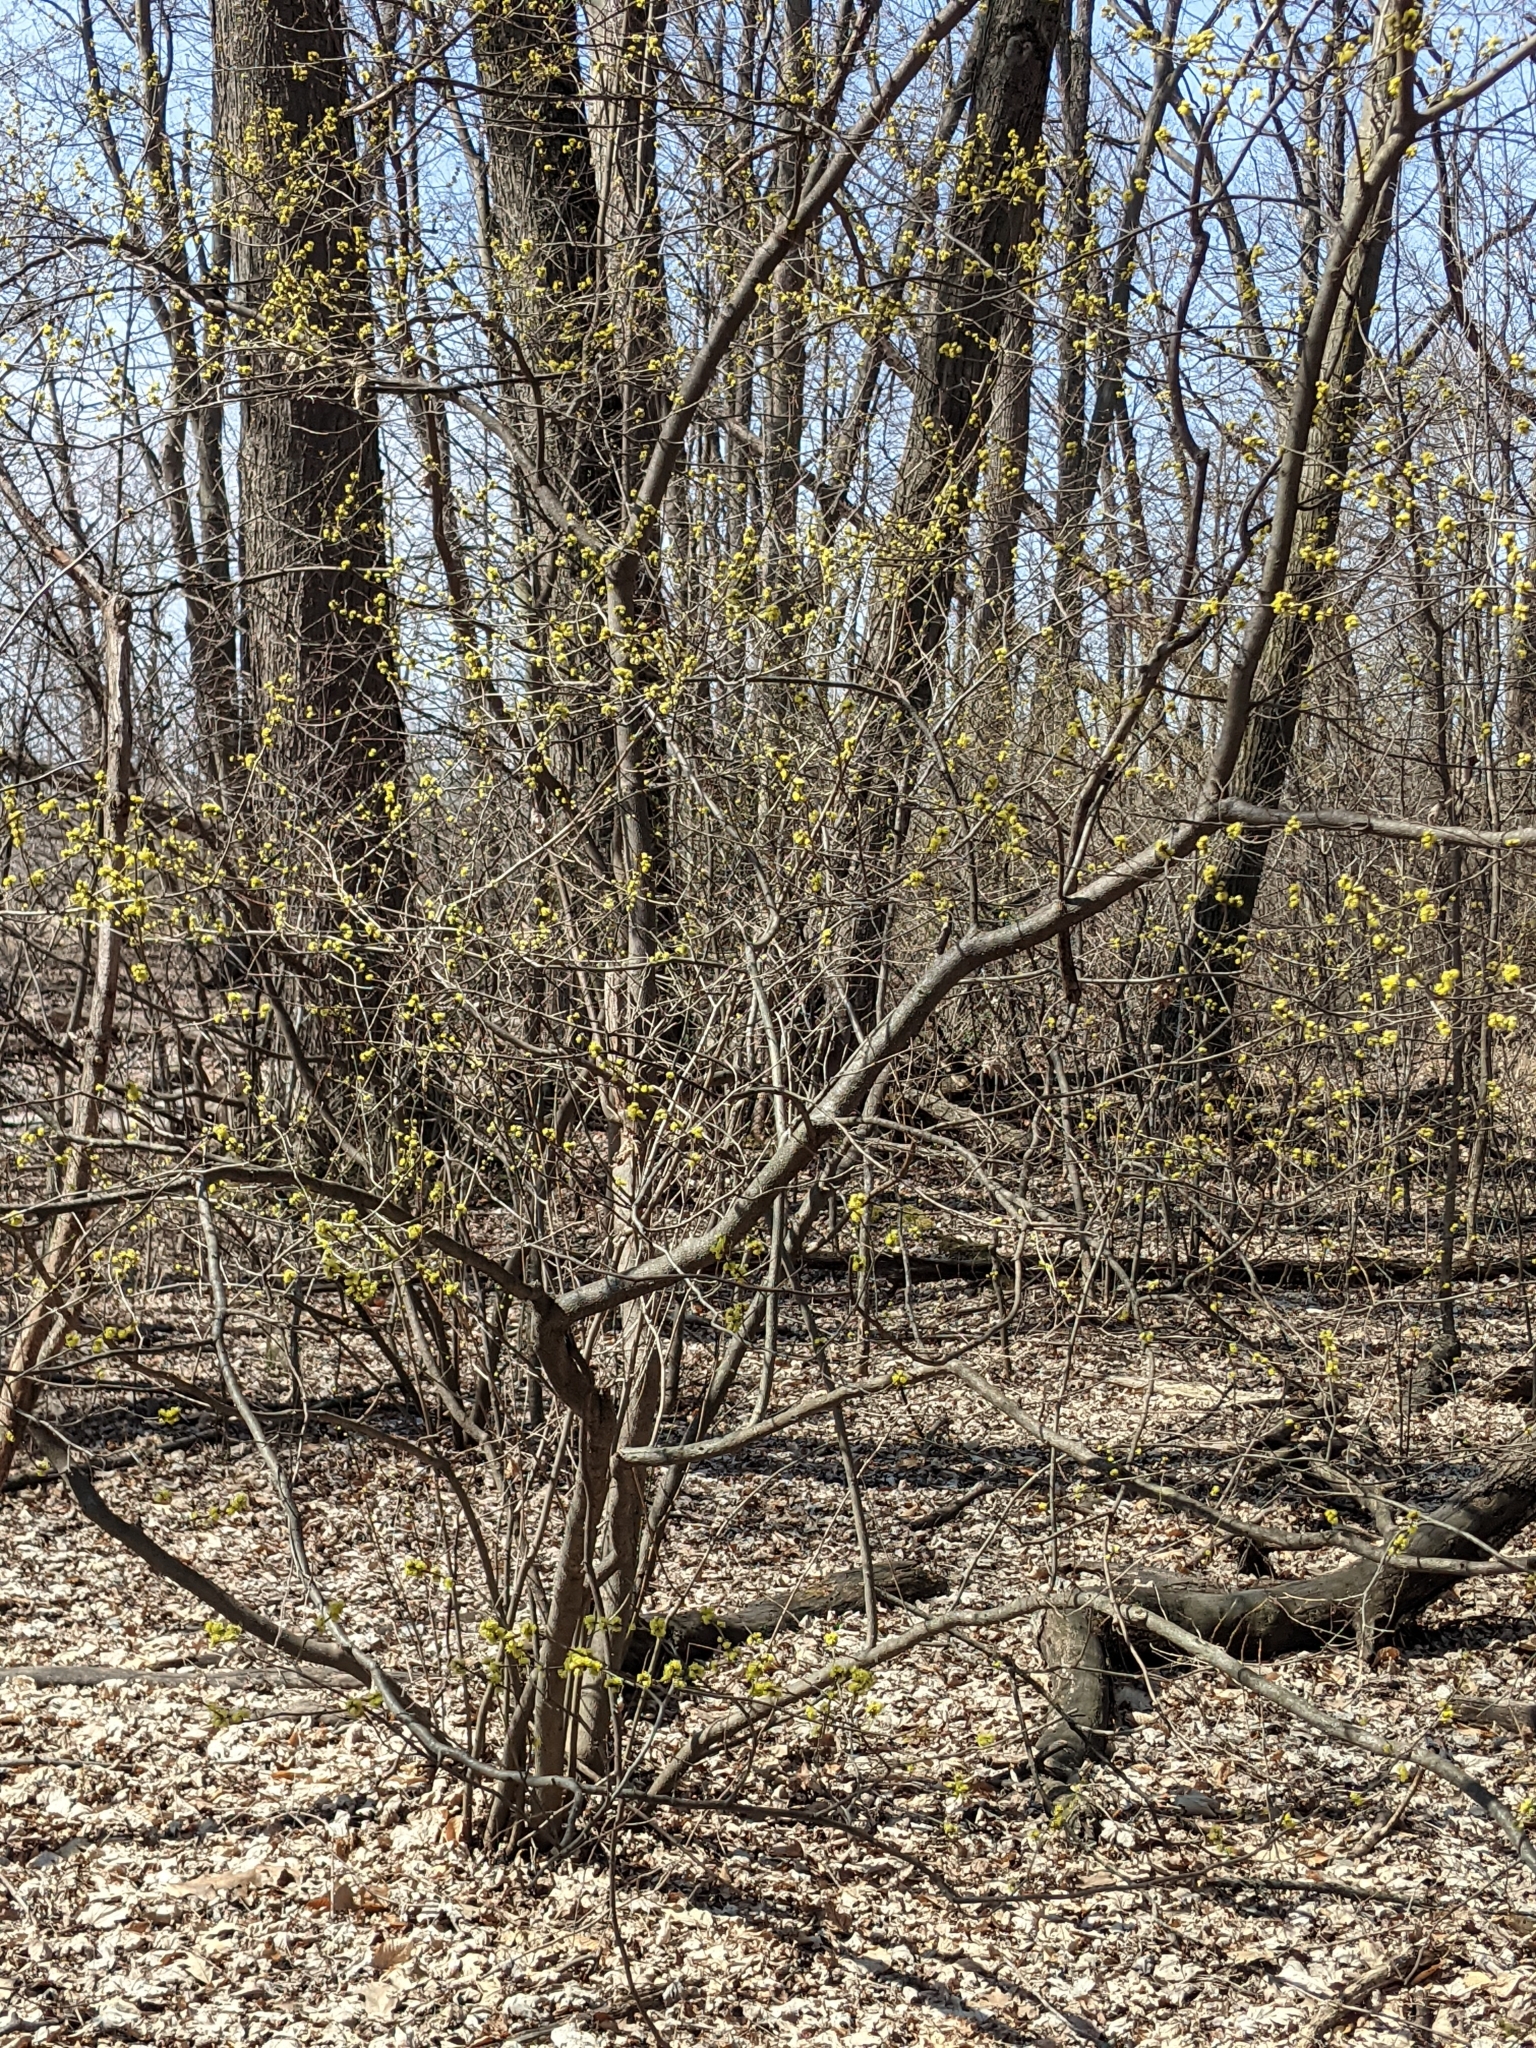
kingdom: Plantae
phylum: Tracheophyta
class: Magnoliopsida
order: Laurales
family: Lauraceae
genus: Lindera
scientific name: Lindera benzoin
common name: Spicebush
